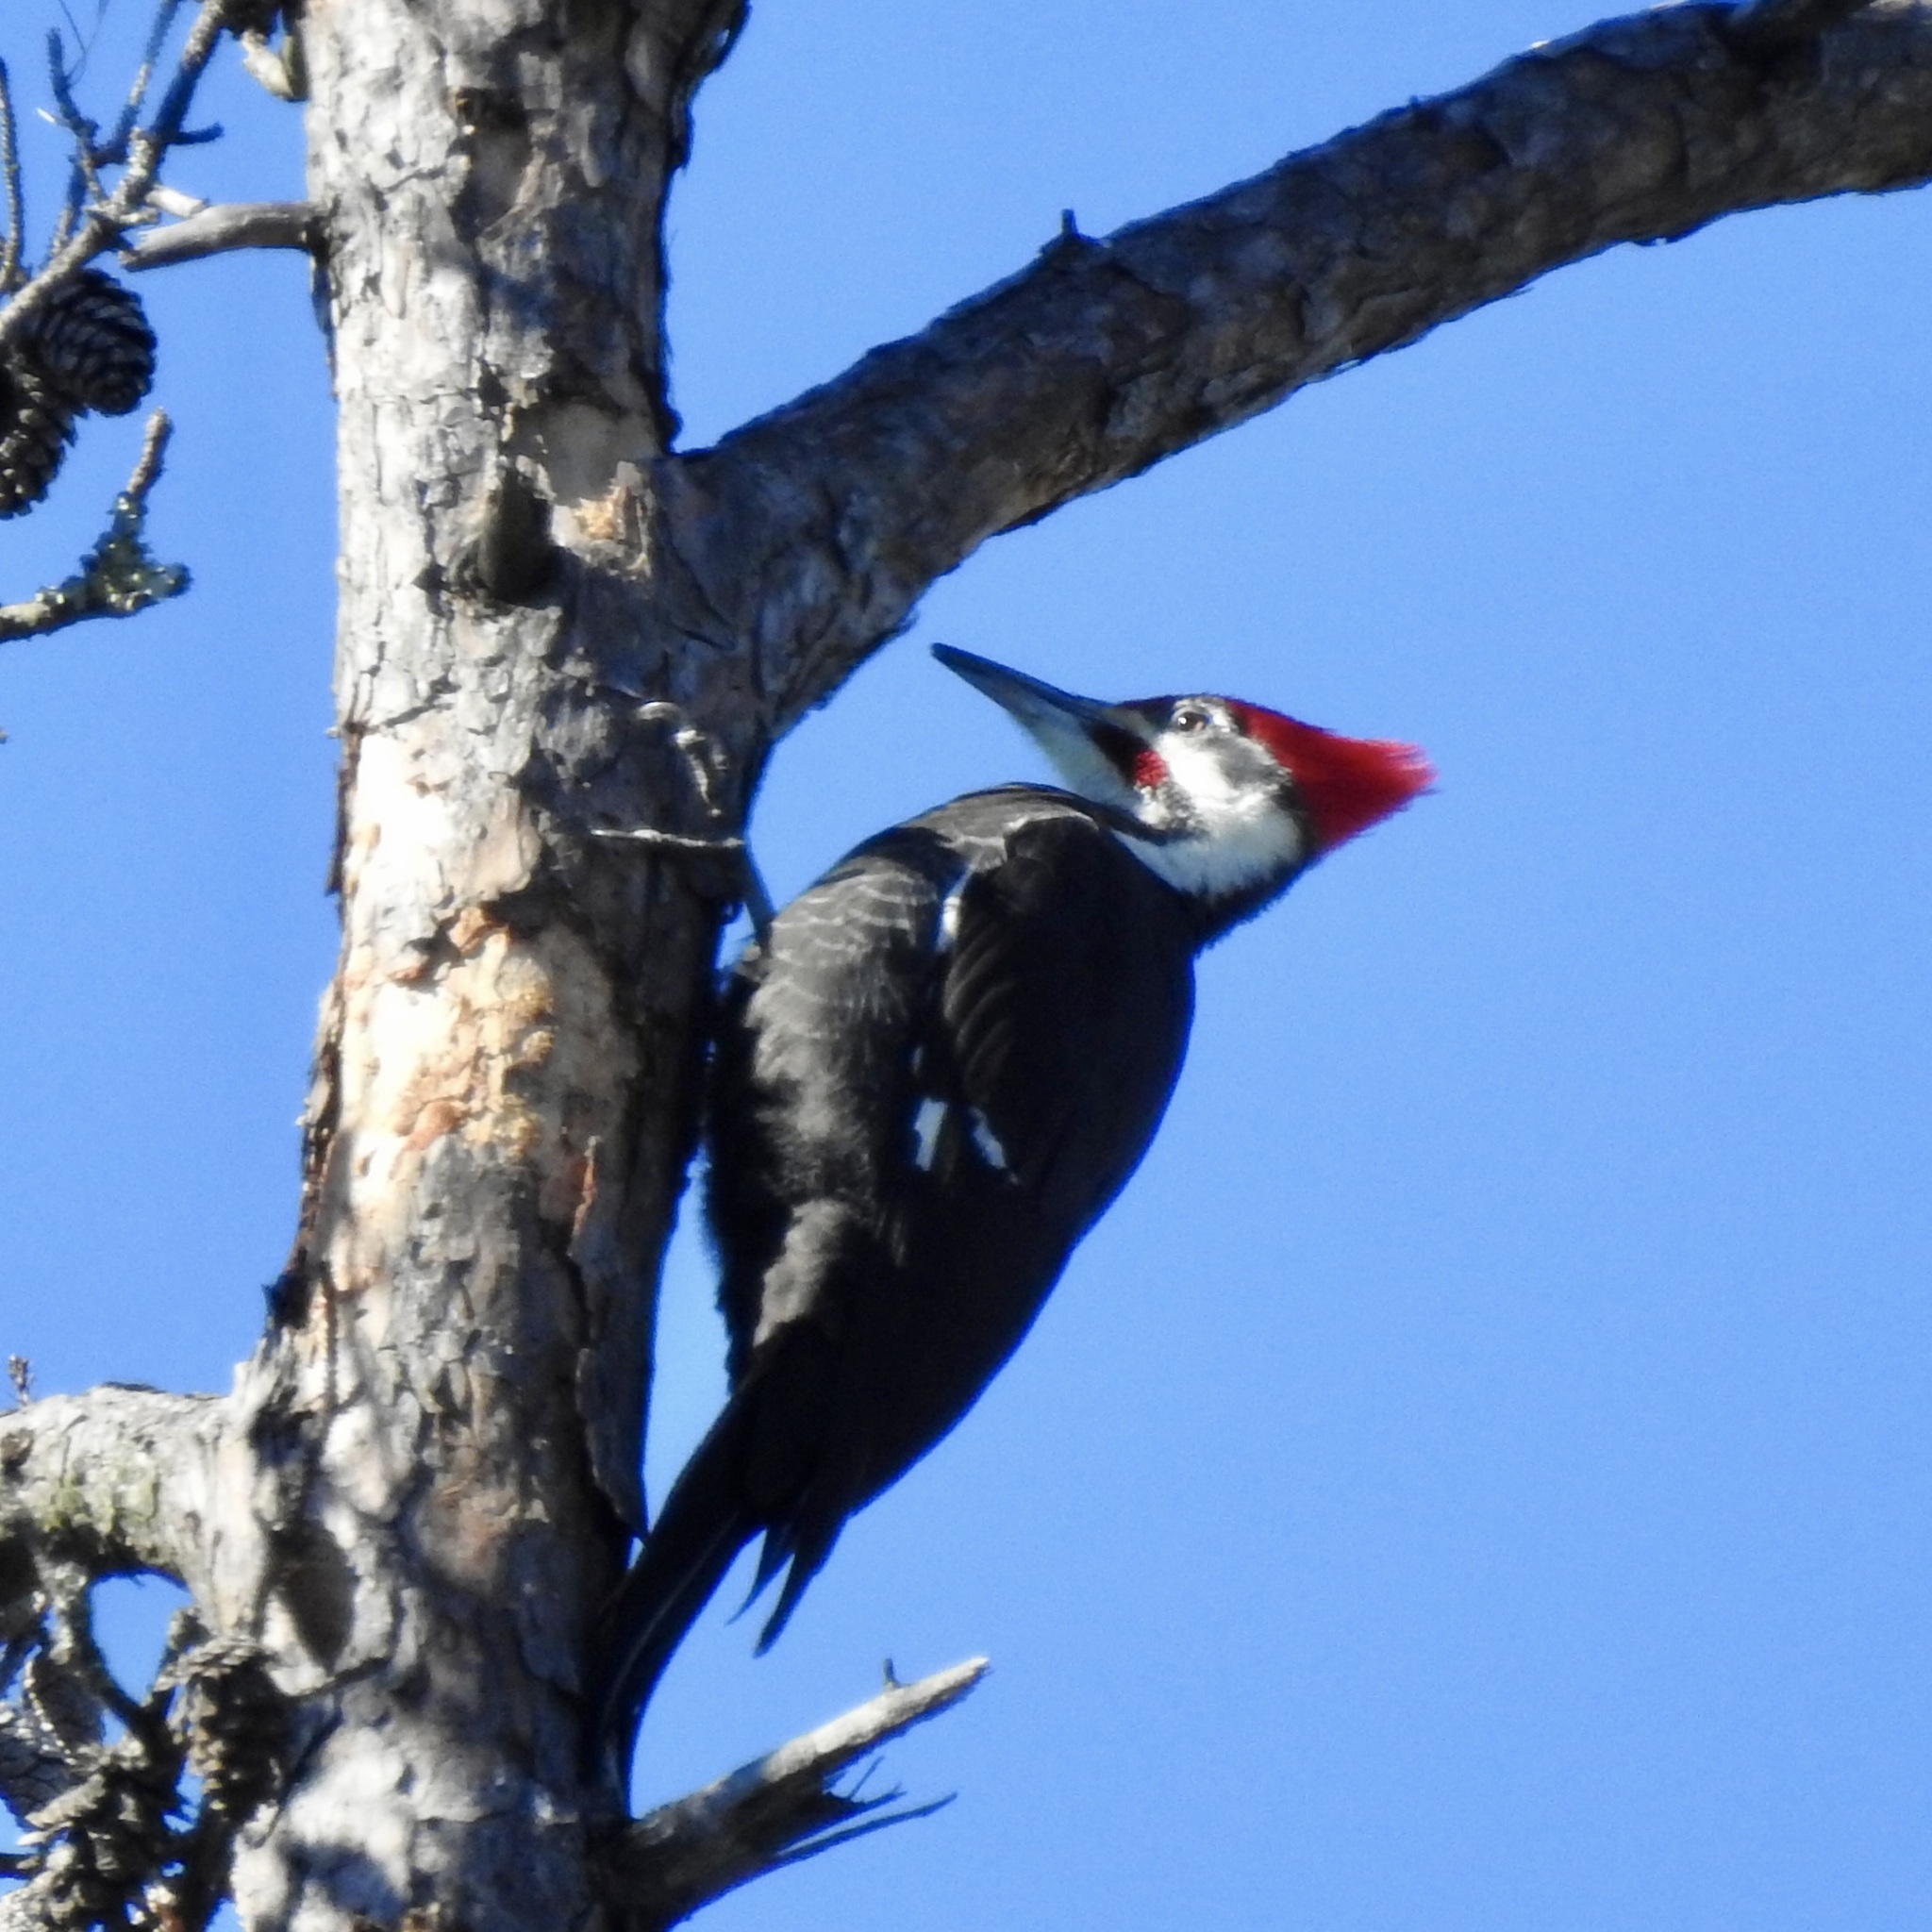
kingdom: Animalia
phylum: Chordata
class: Aves
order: Piciformes
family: Picidae
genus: Dryocopus
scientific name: Dryocopus pileatus
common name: Pileated woodpecker
